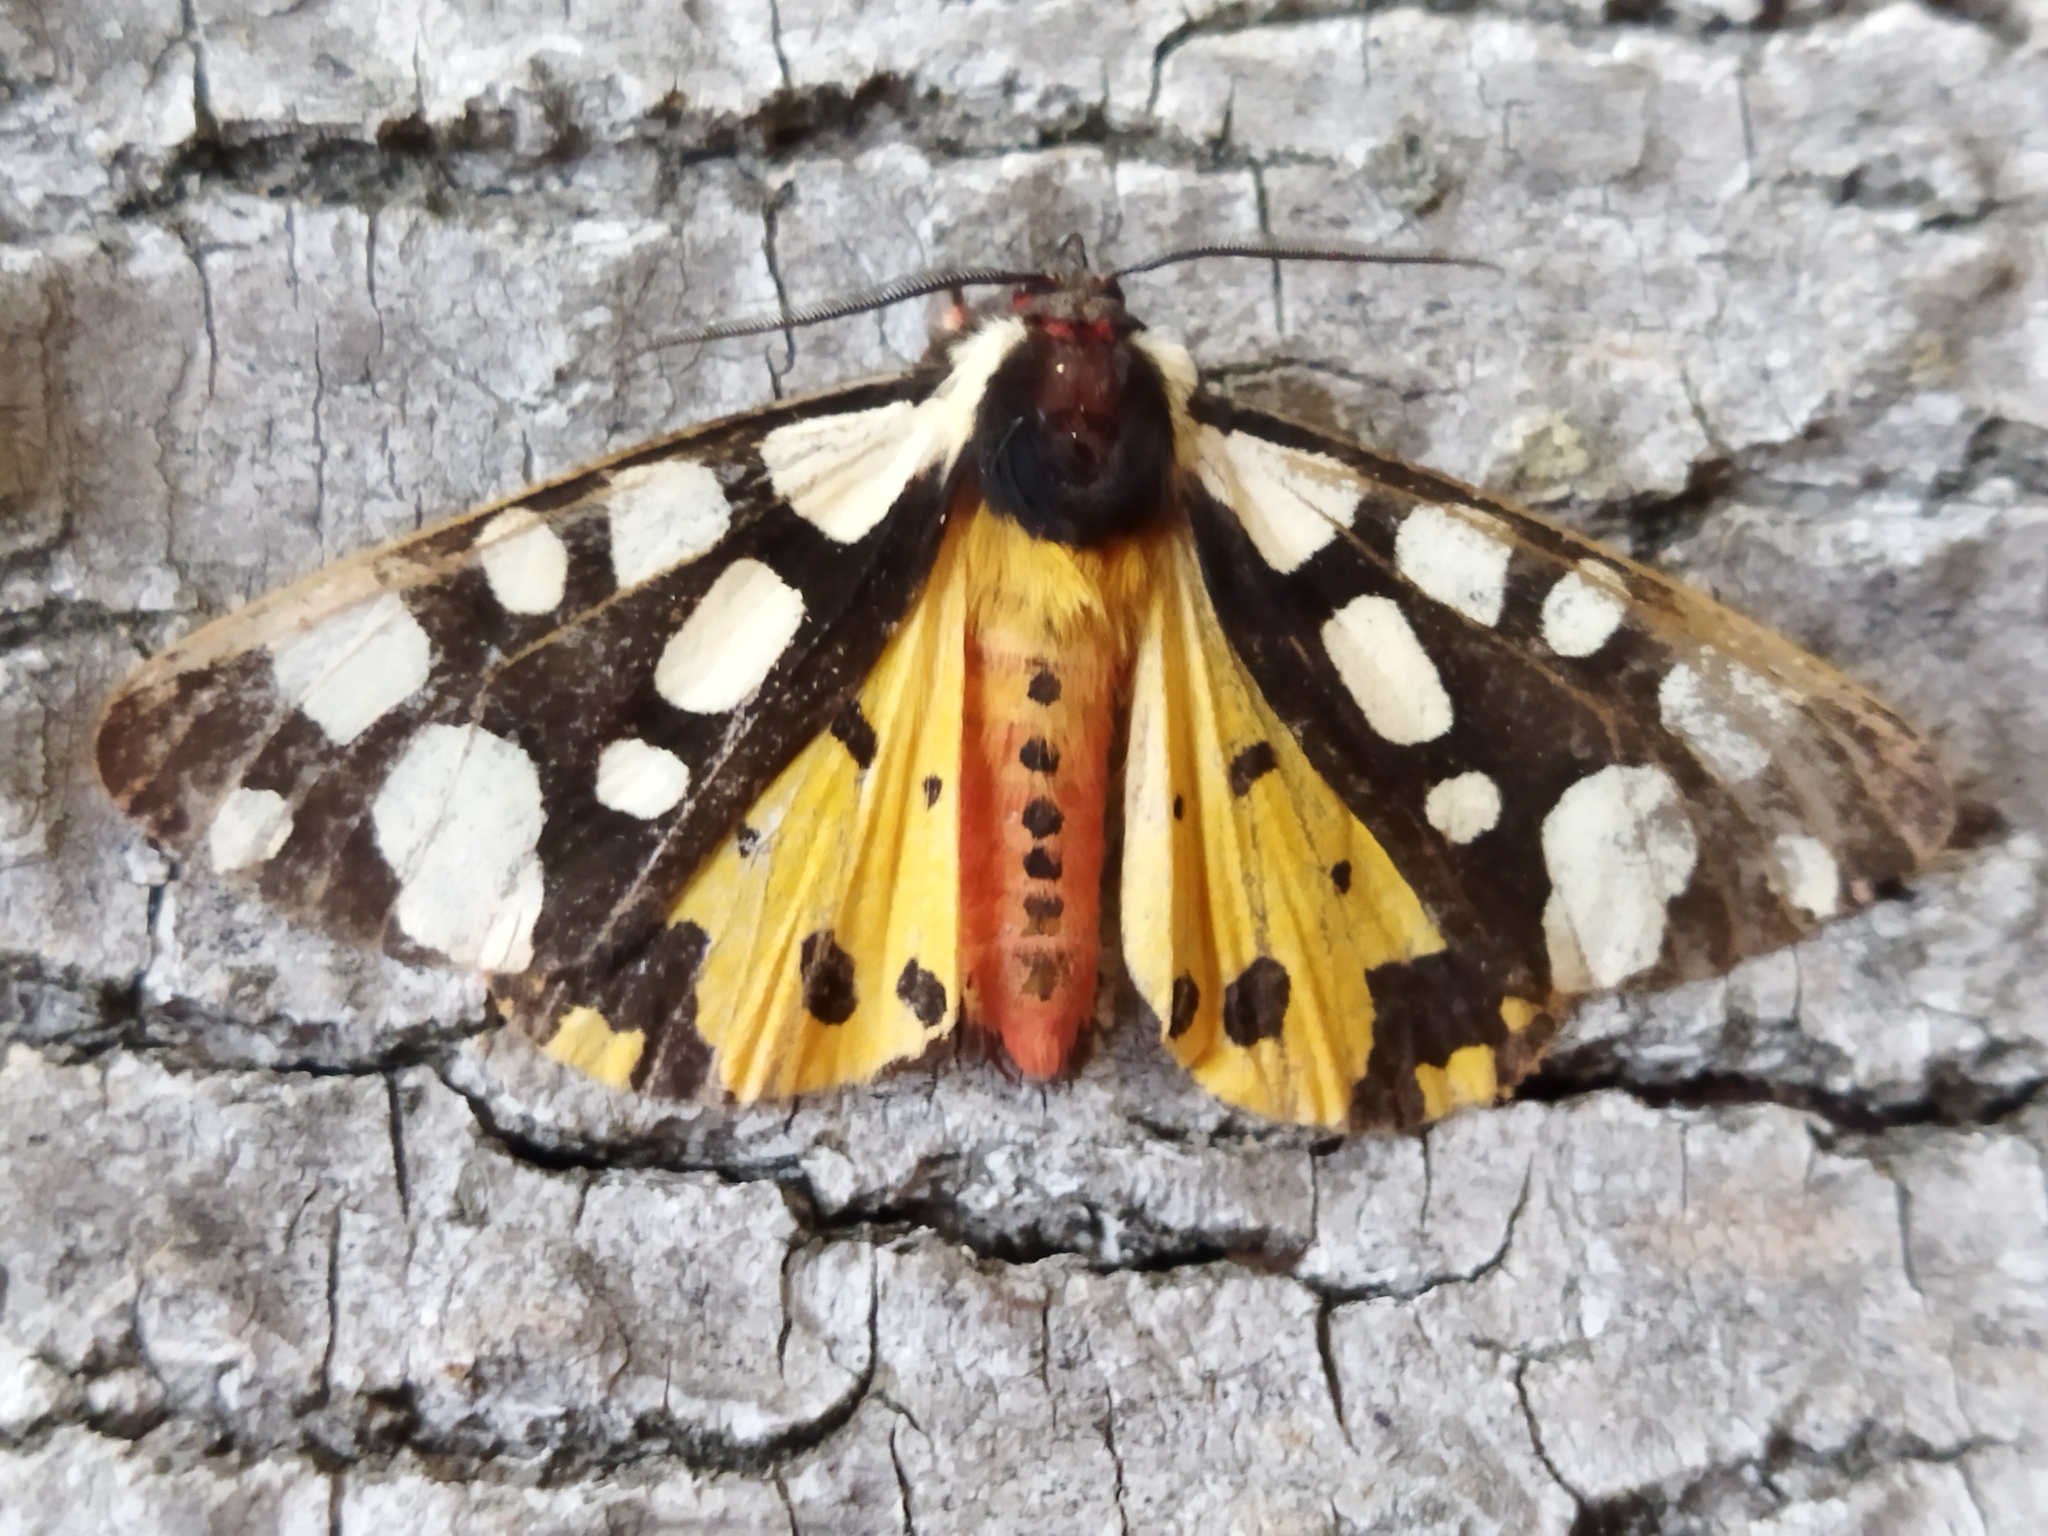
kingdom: Animalia
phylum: Arthropoda
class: Insecta
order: Lepidoptera
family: Erebidae
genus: Epicallia
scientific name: Epicallia villica
